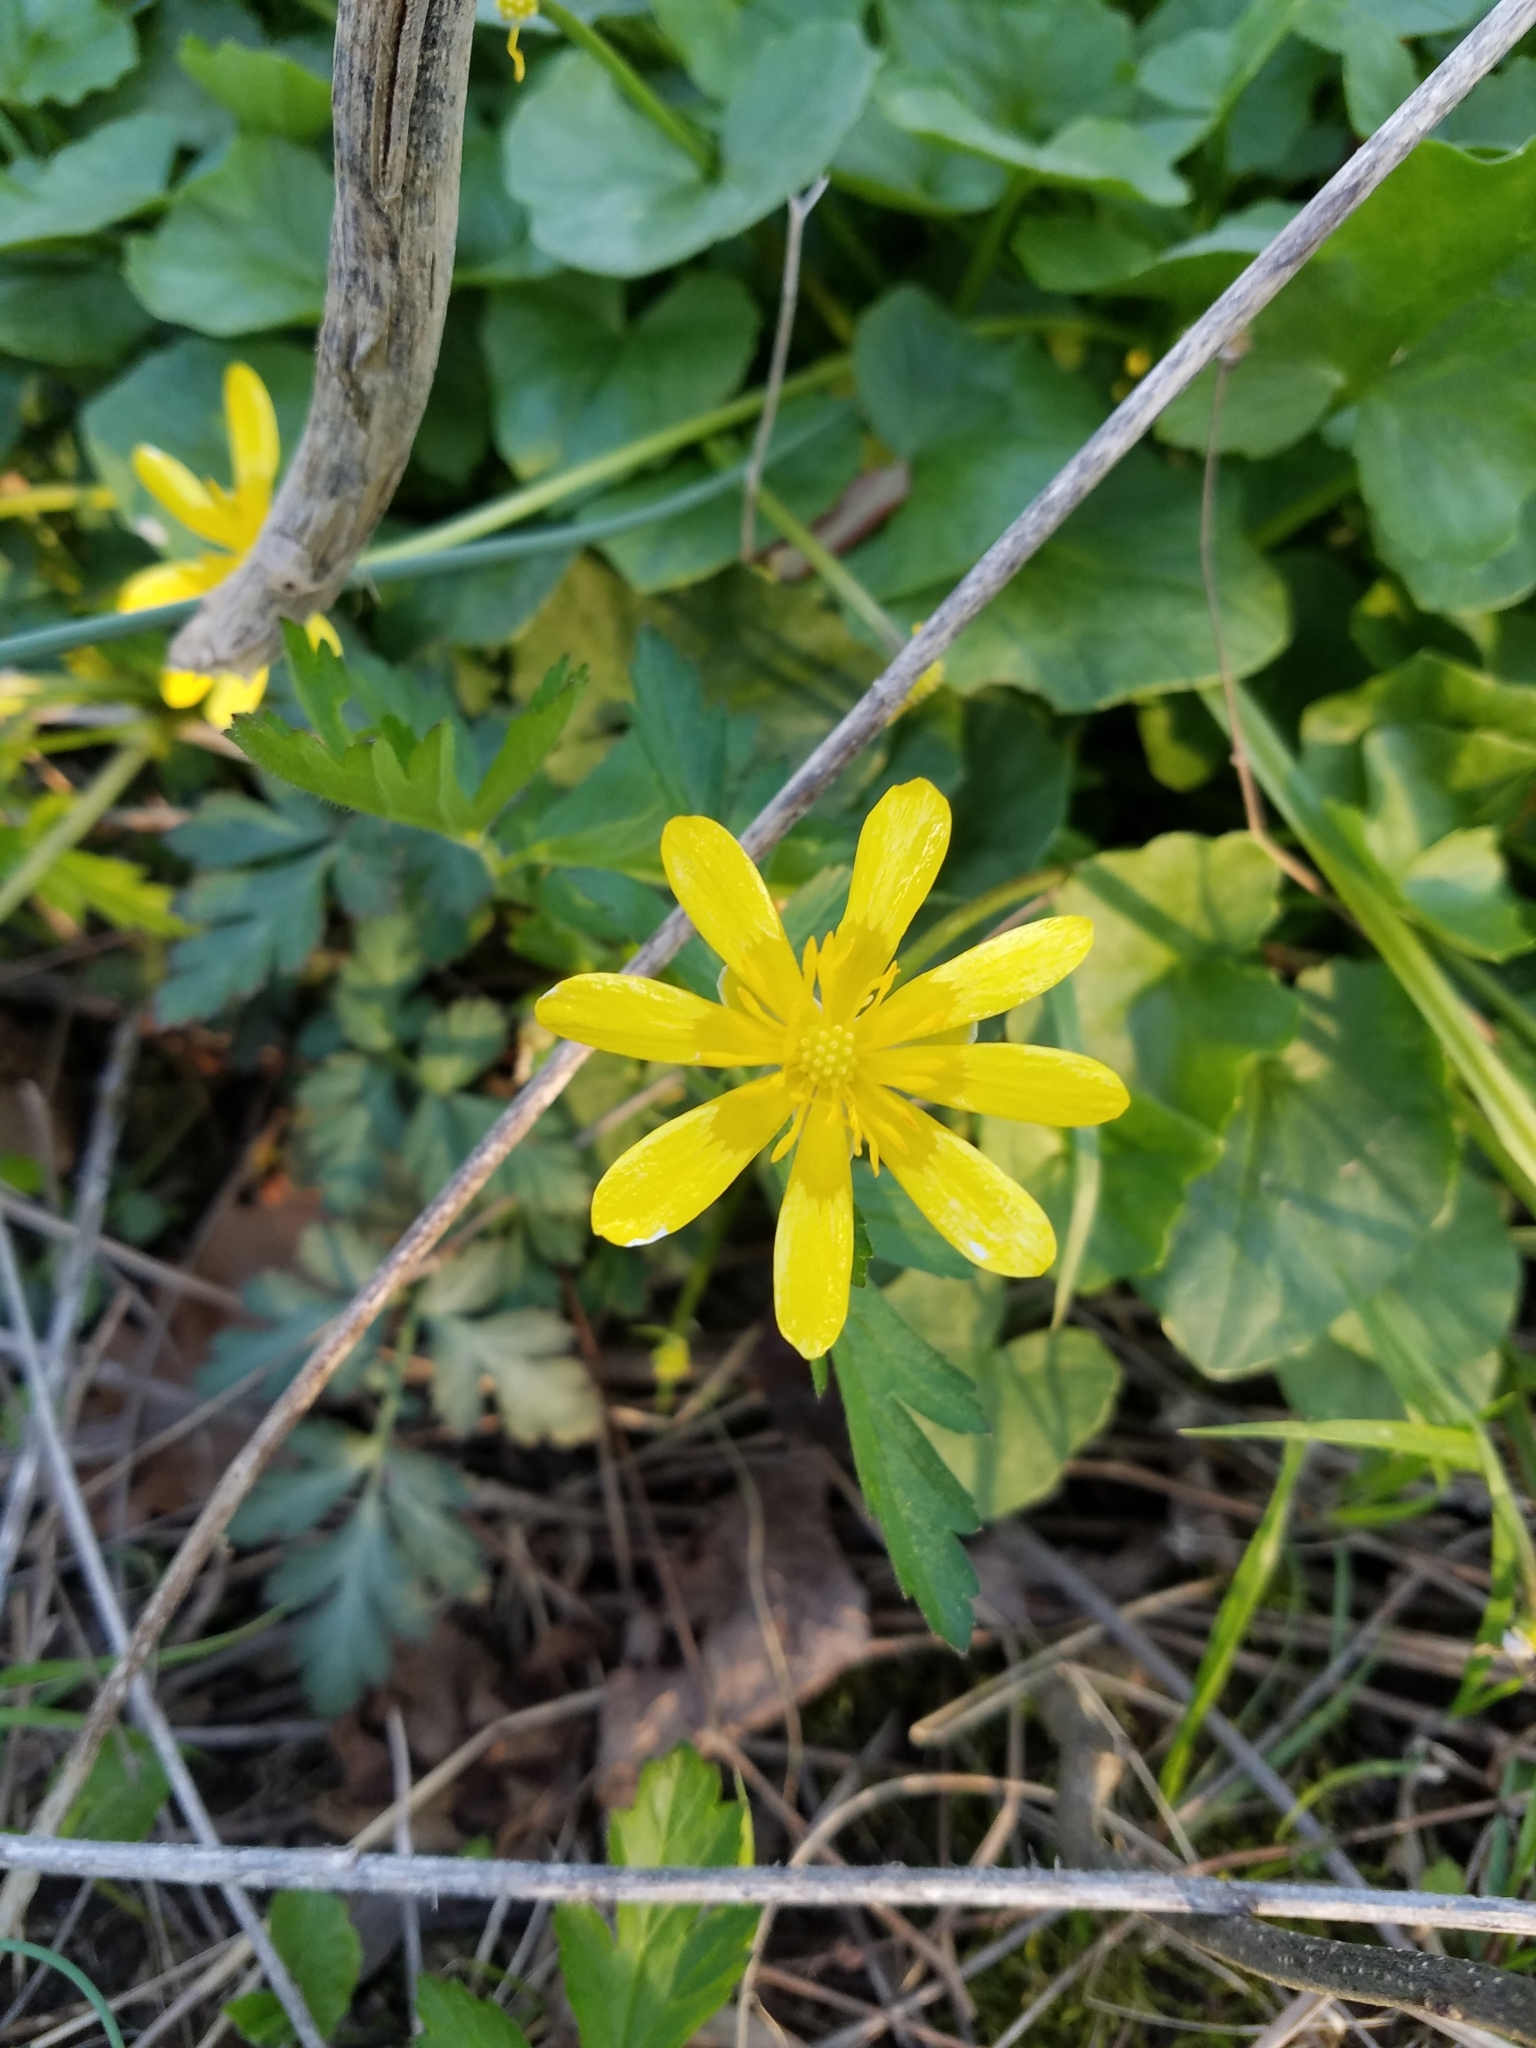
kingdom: Plantae
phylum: Tracheophyta
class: Magnoliopsida
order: Ranunculales
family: Ranunculaceae
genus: Ficaria
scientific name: Ficaria verna
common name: Lesser celandine
